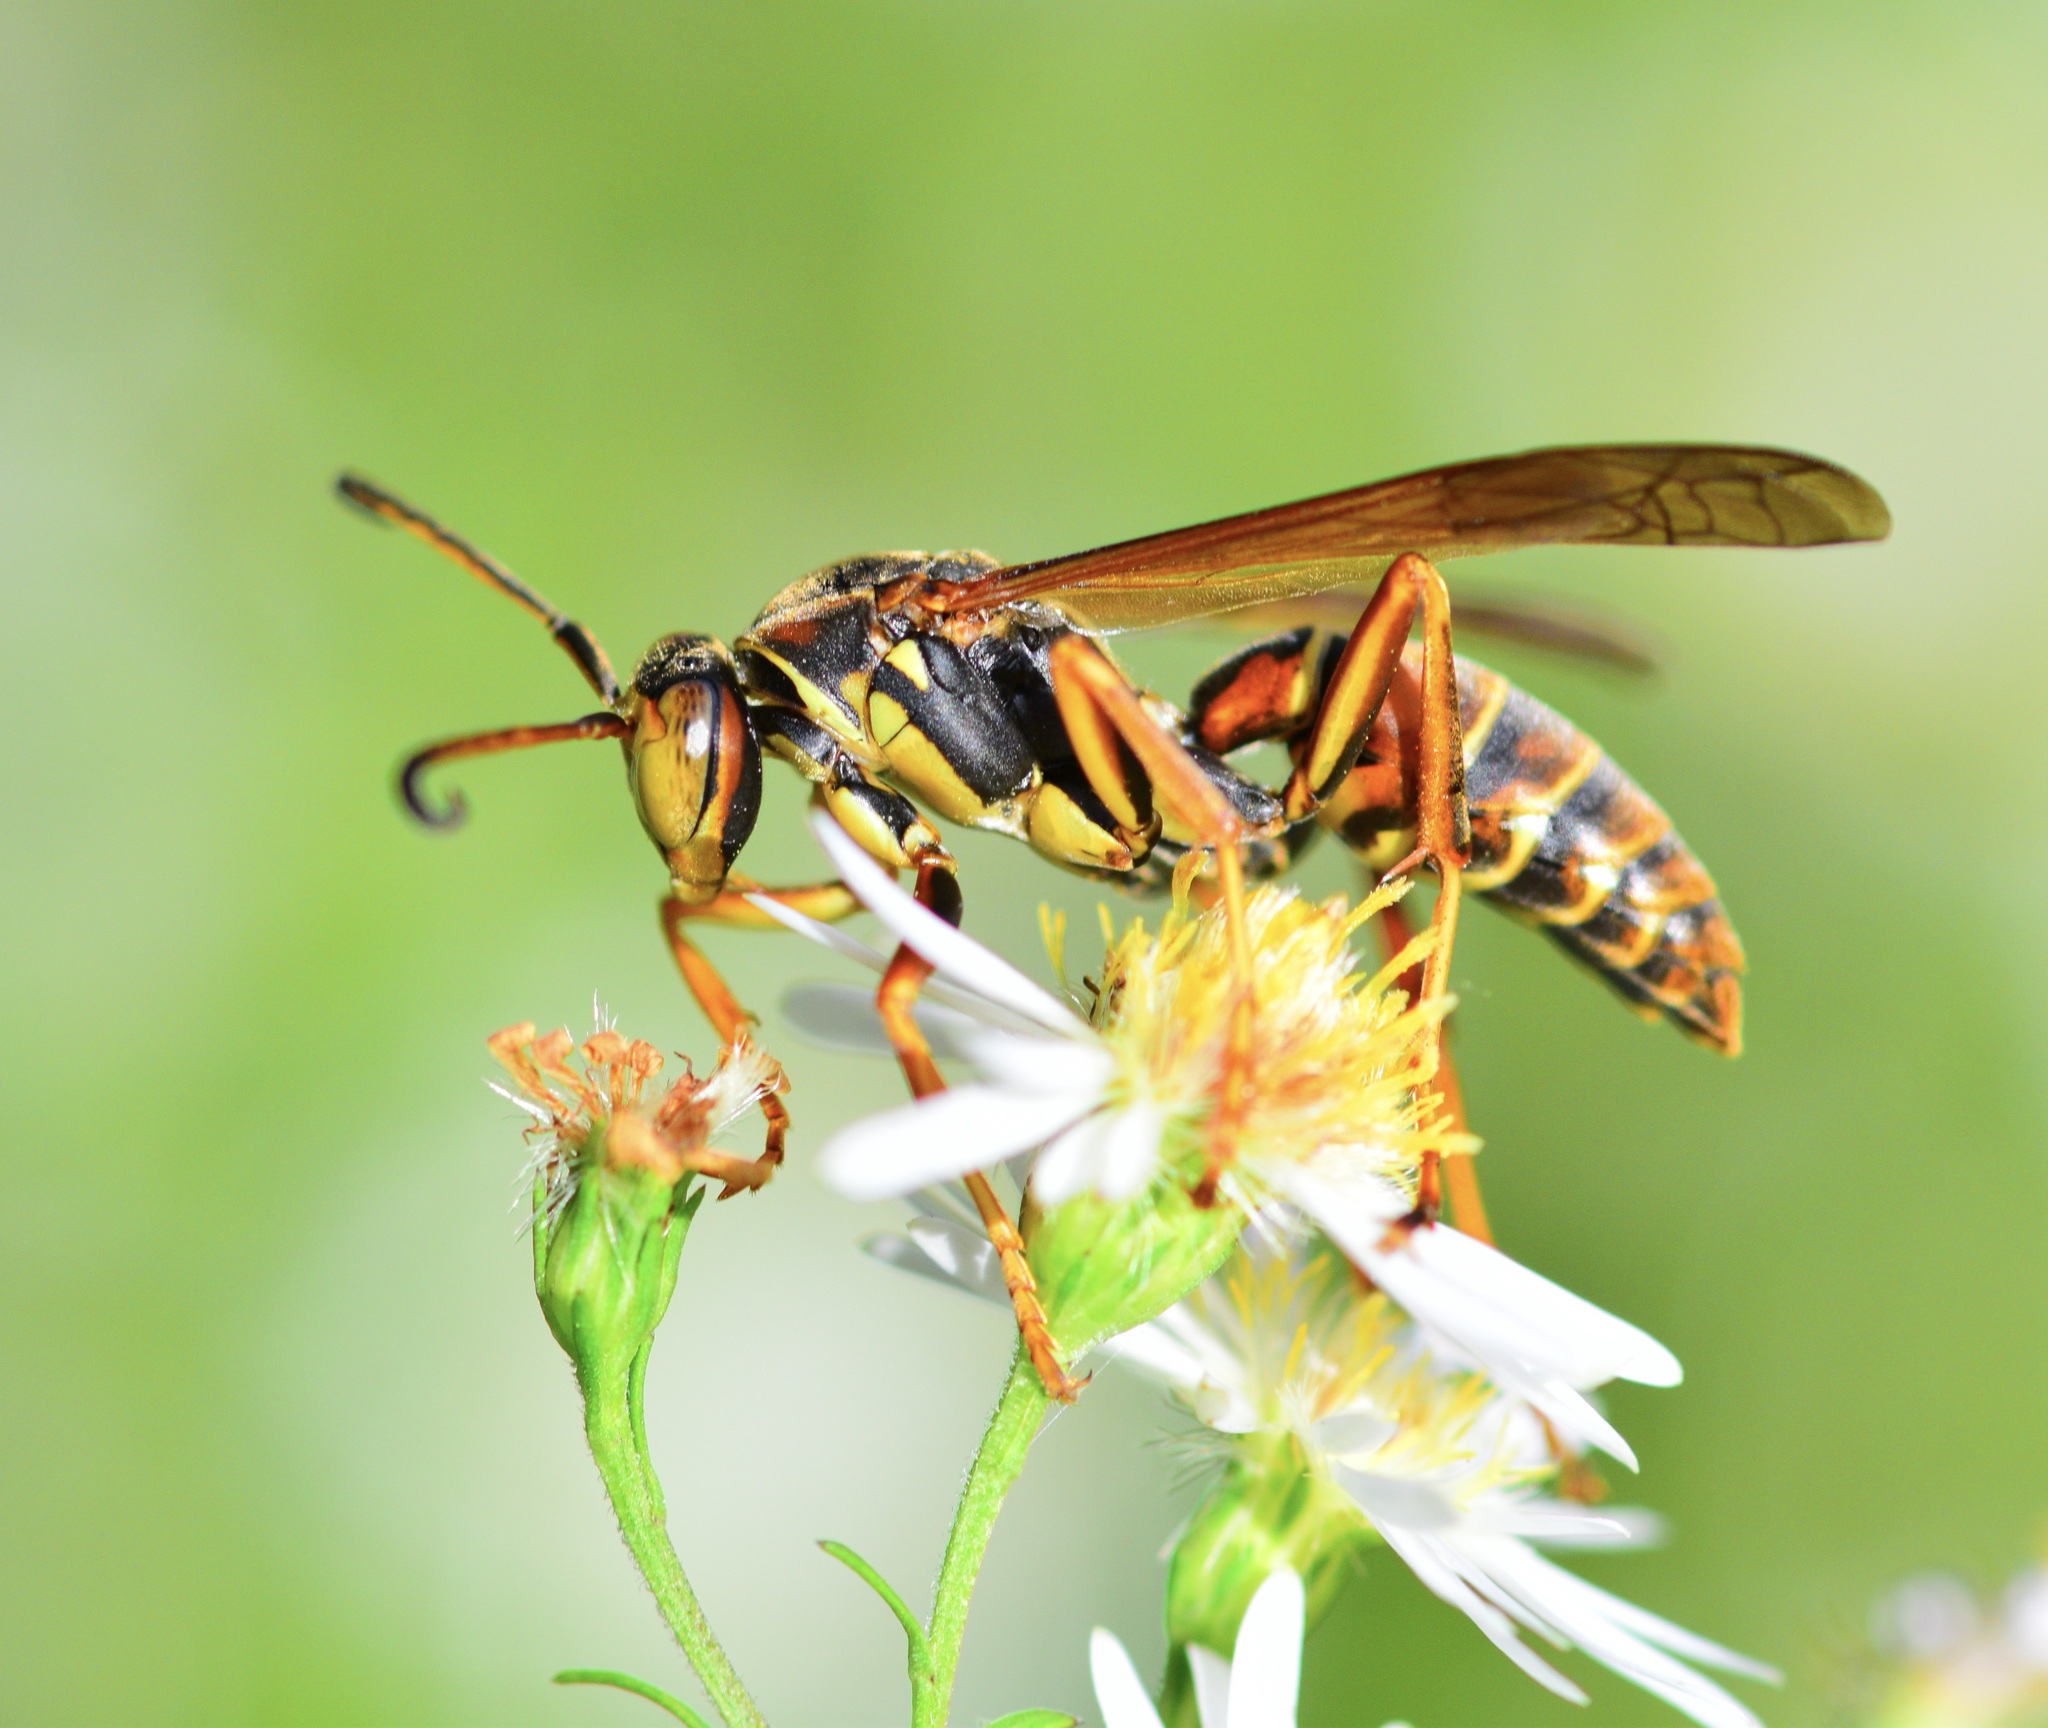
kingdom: Animalia
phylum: Arthropoda
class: Insecta
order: Hymenoptera
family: Eumenidae
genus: Polistes
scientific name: Polistes fuscatus
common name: Dark paper wasp
